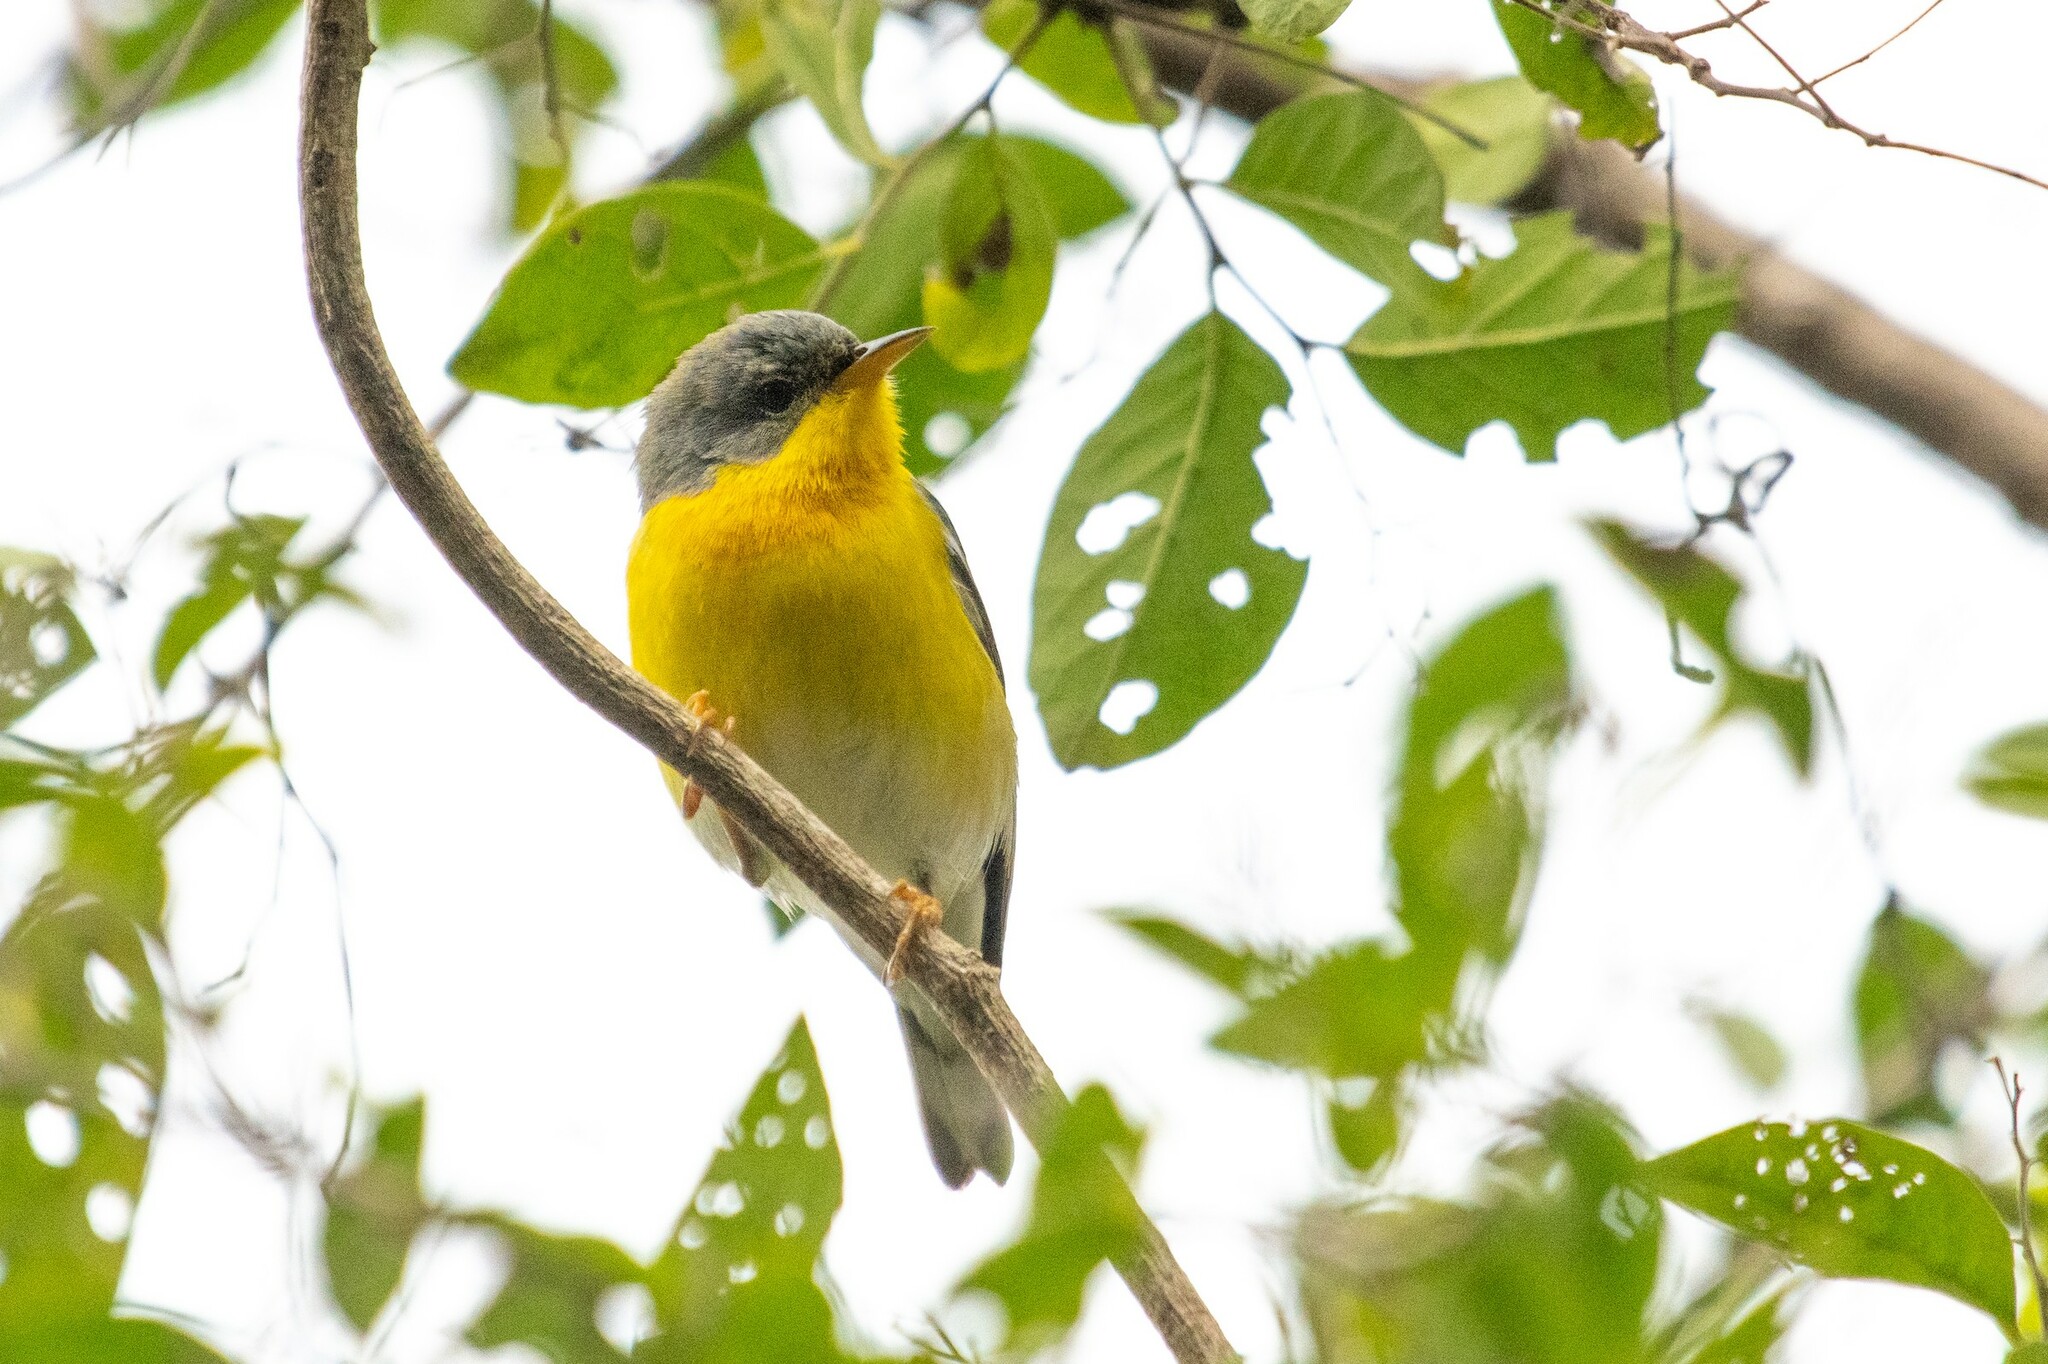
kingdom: Animalia
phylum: Chordata
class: Aves
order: Passeriformes
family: Parulidae
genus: Setophaga
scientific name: Setophaga pitiayumi
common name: Tropical parula
